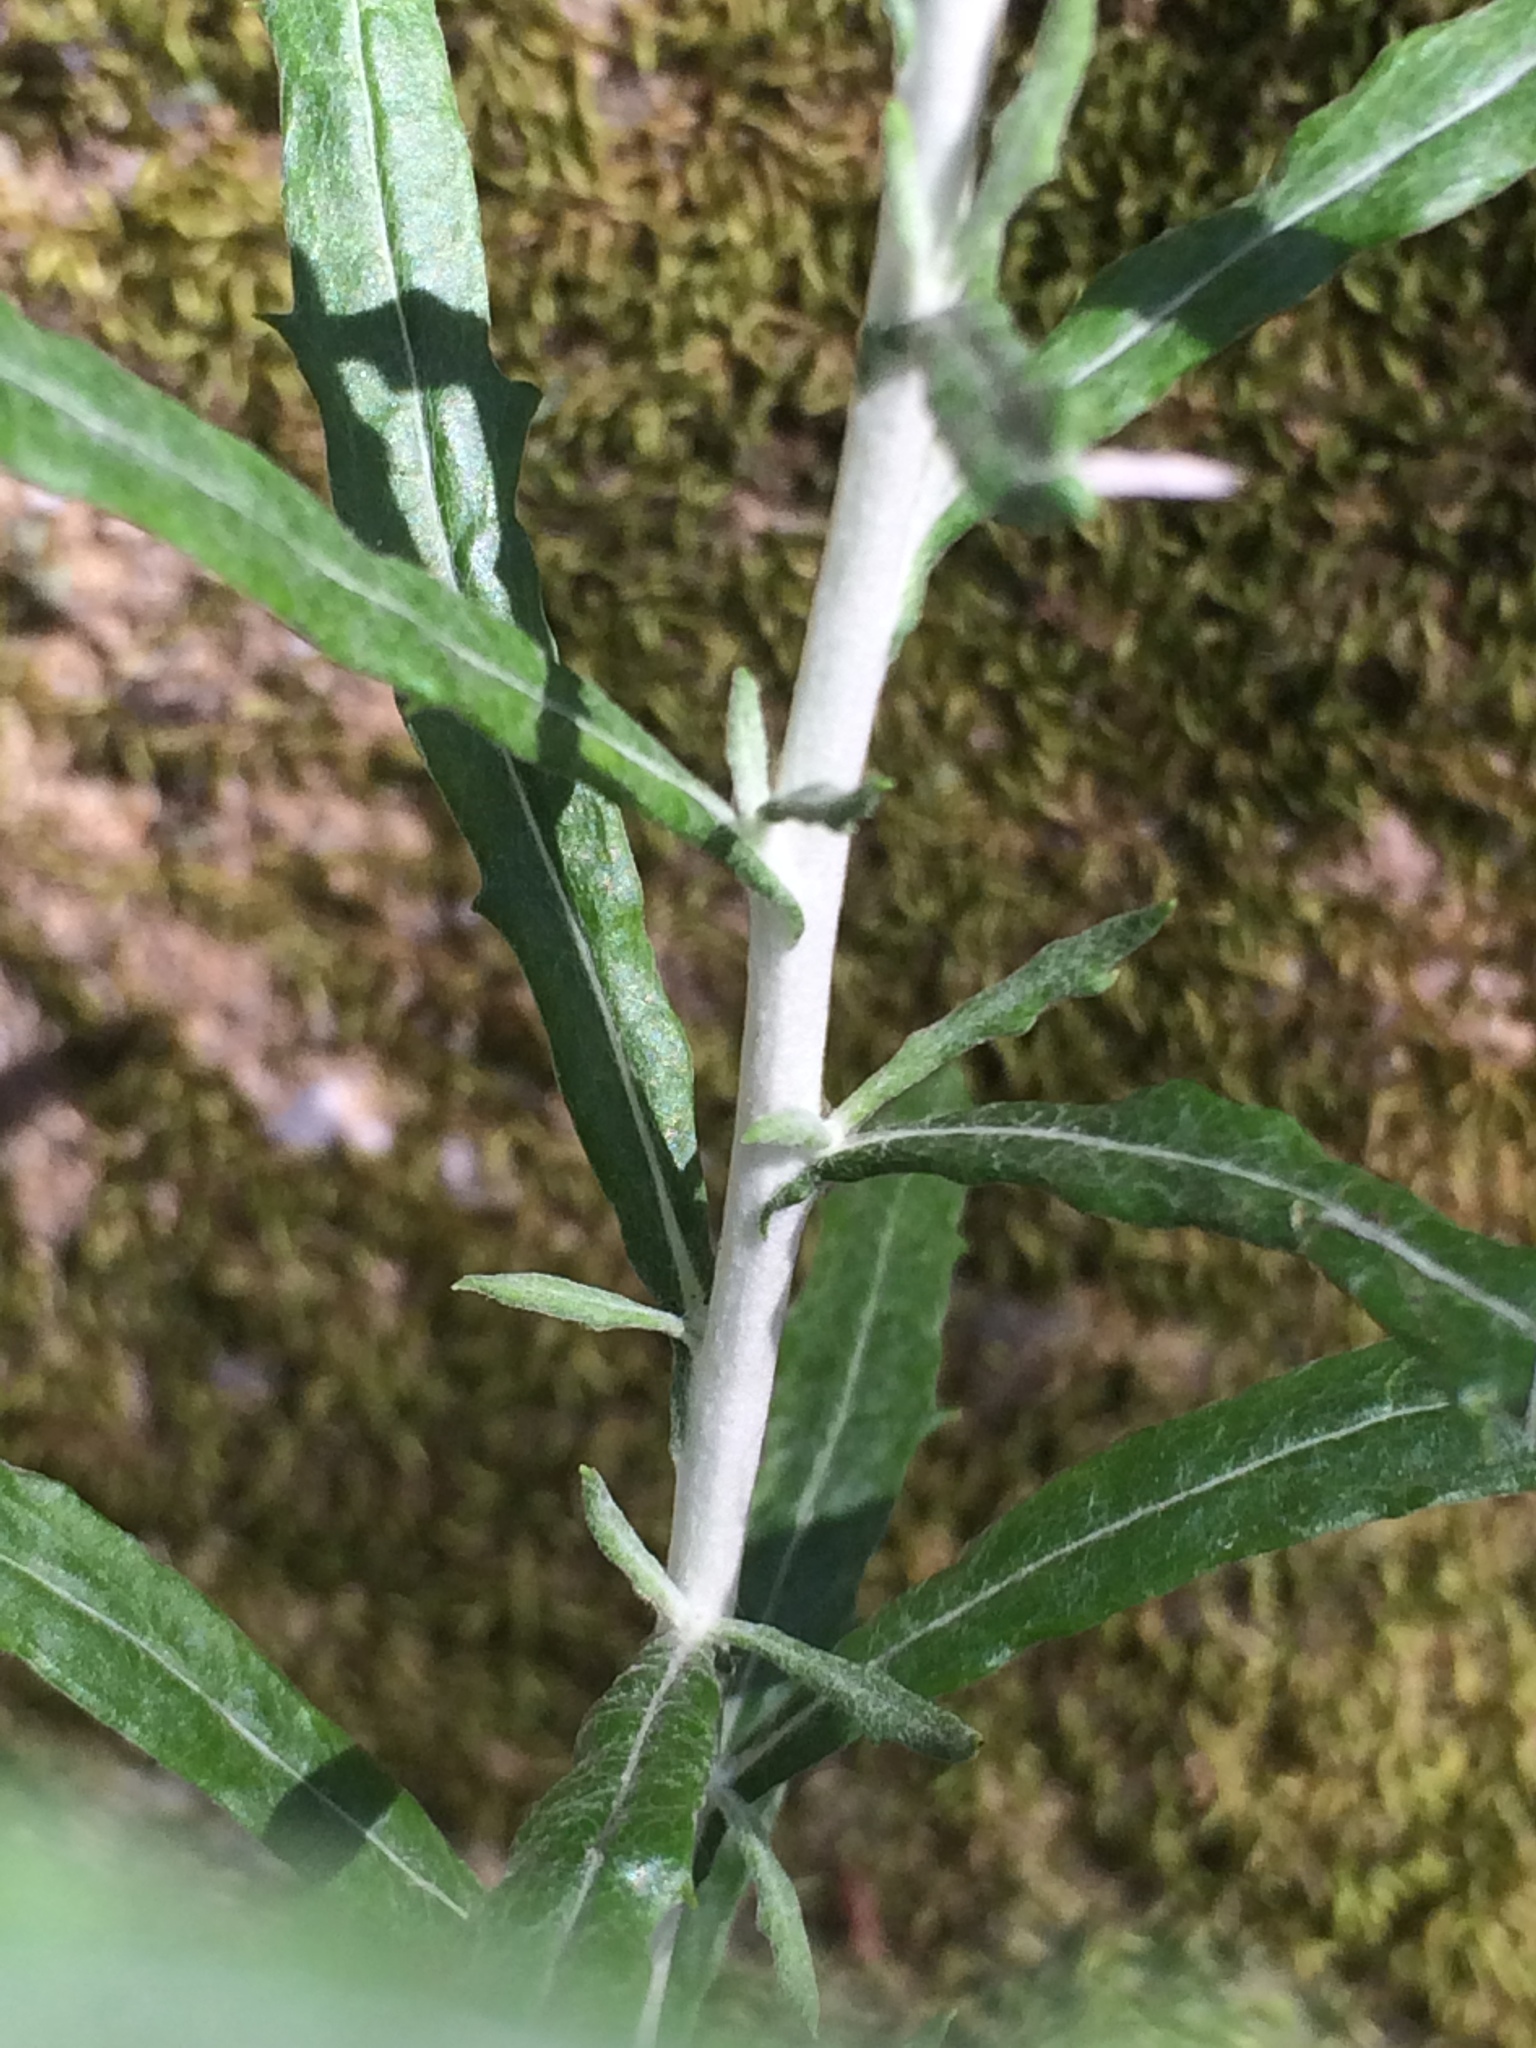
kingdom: Plantae
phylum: Tracheophyta
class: Magnoliopsida
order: Asterales
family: Asteraceae
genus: Phagnalon
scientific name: Phagnalon saxatile
